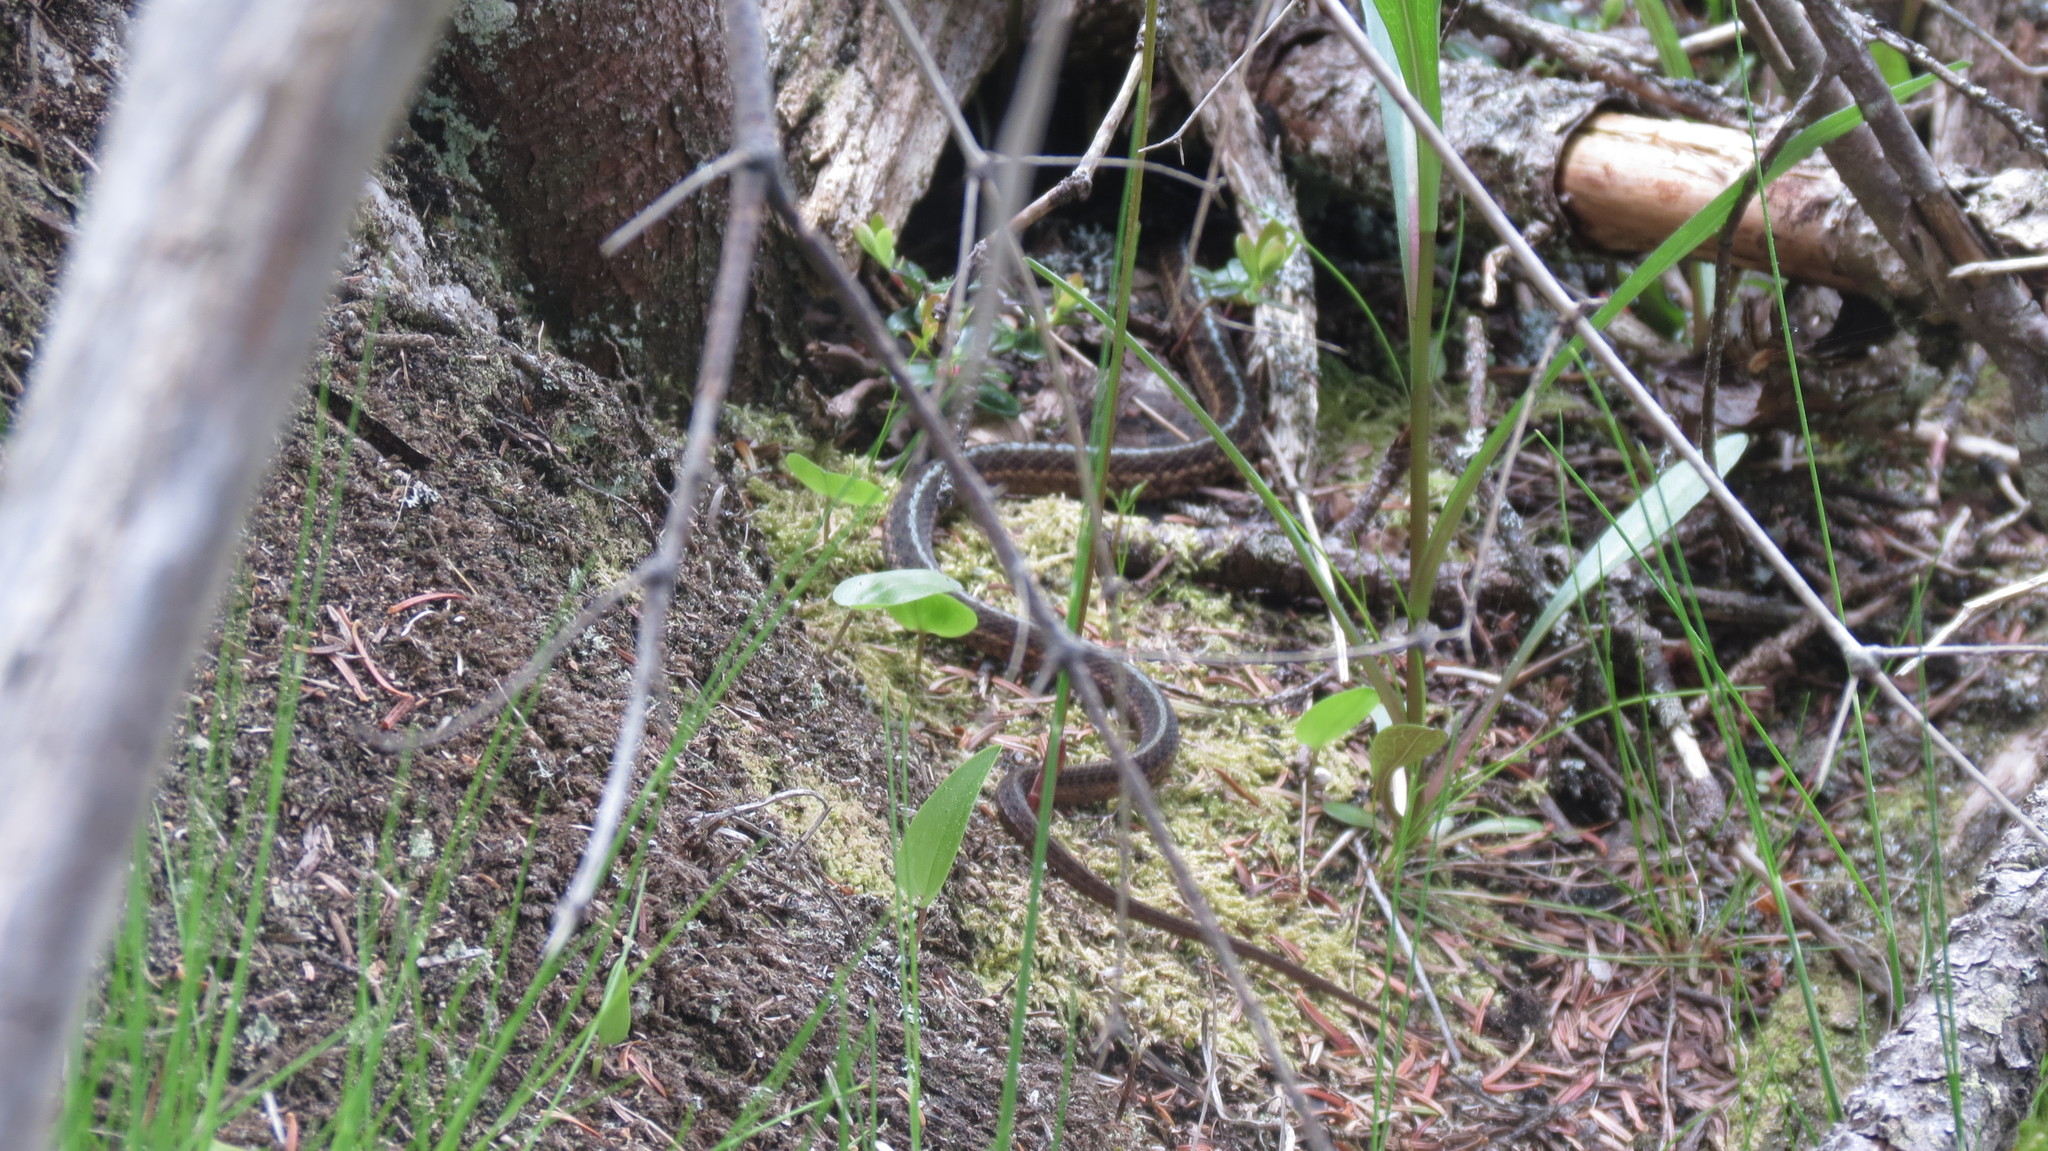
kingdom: Animalia
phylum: Chordata
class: Squamata
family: Colubridae
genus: Thamnophis
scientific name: Thamnophis sirtalis
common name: Common garter snake
